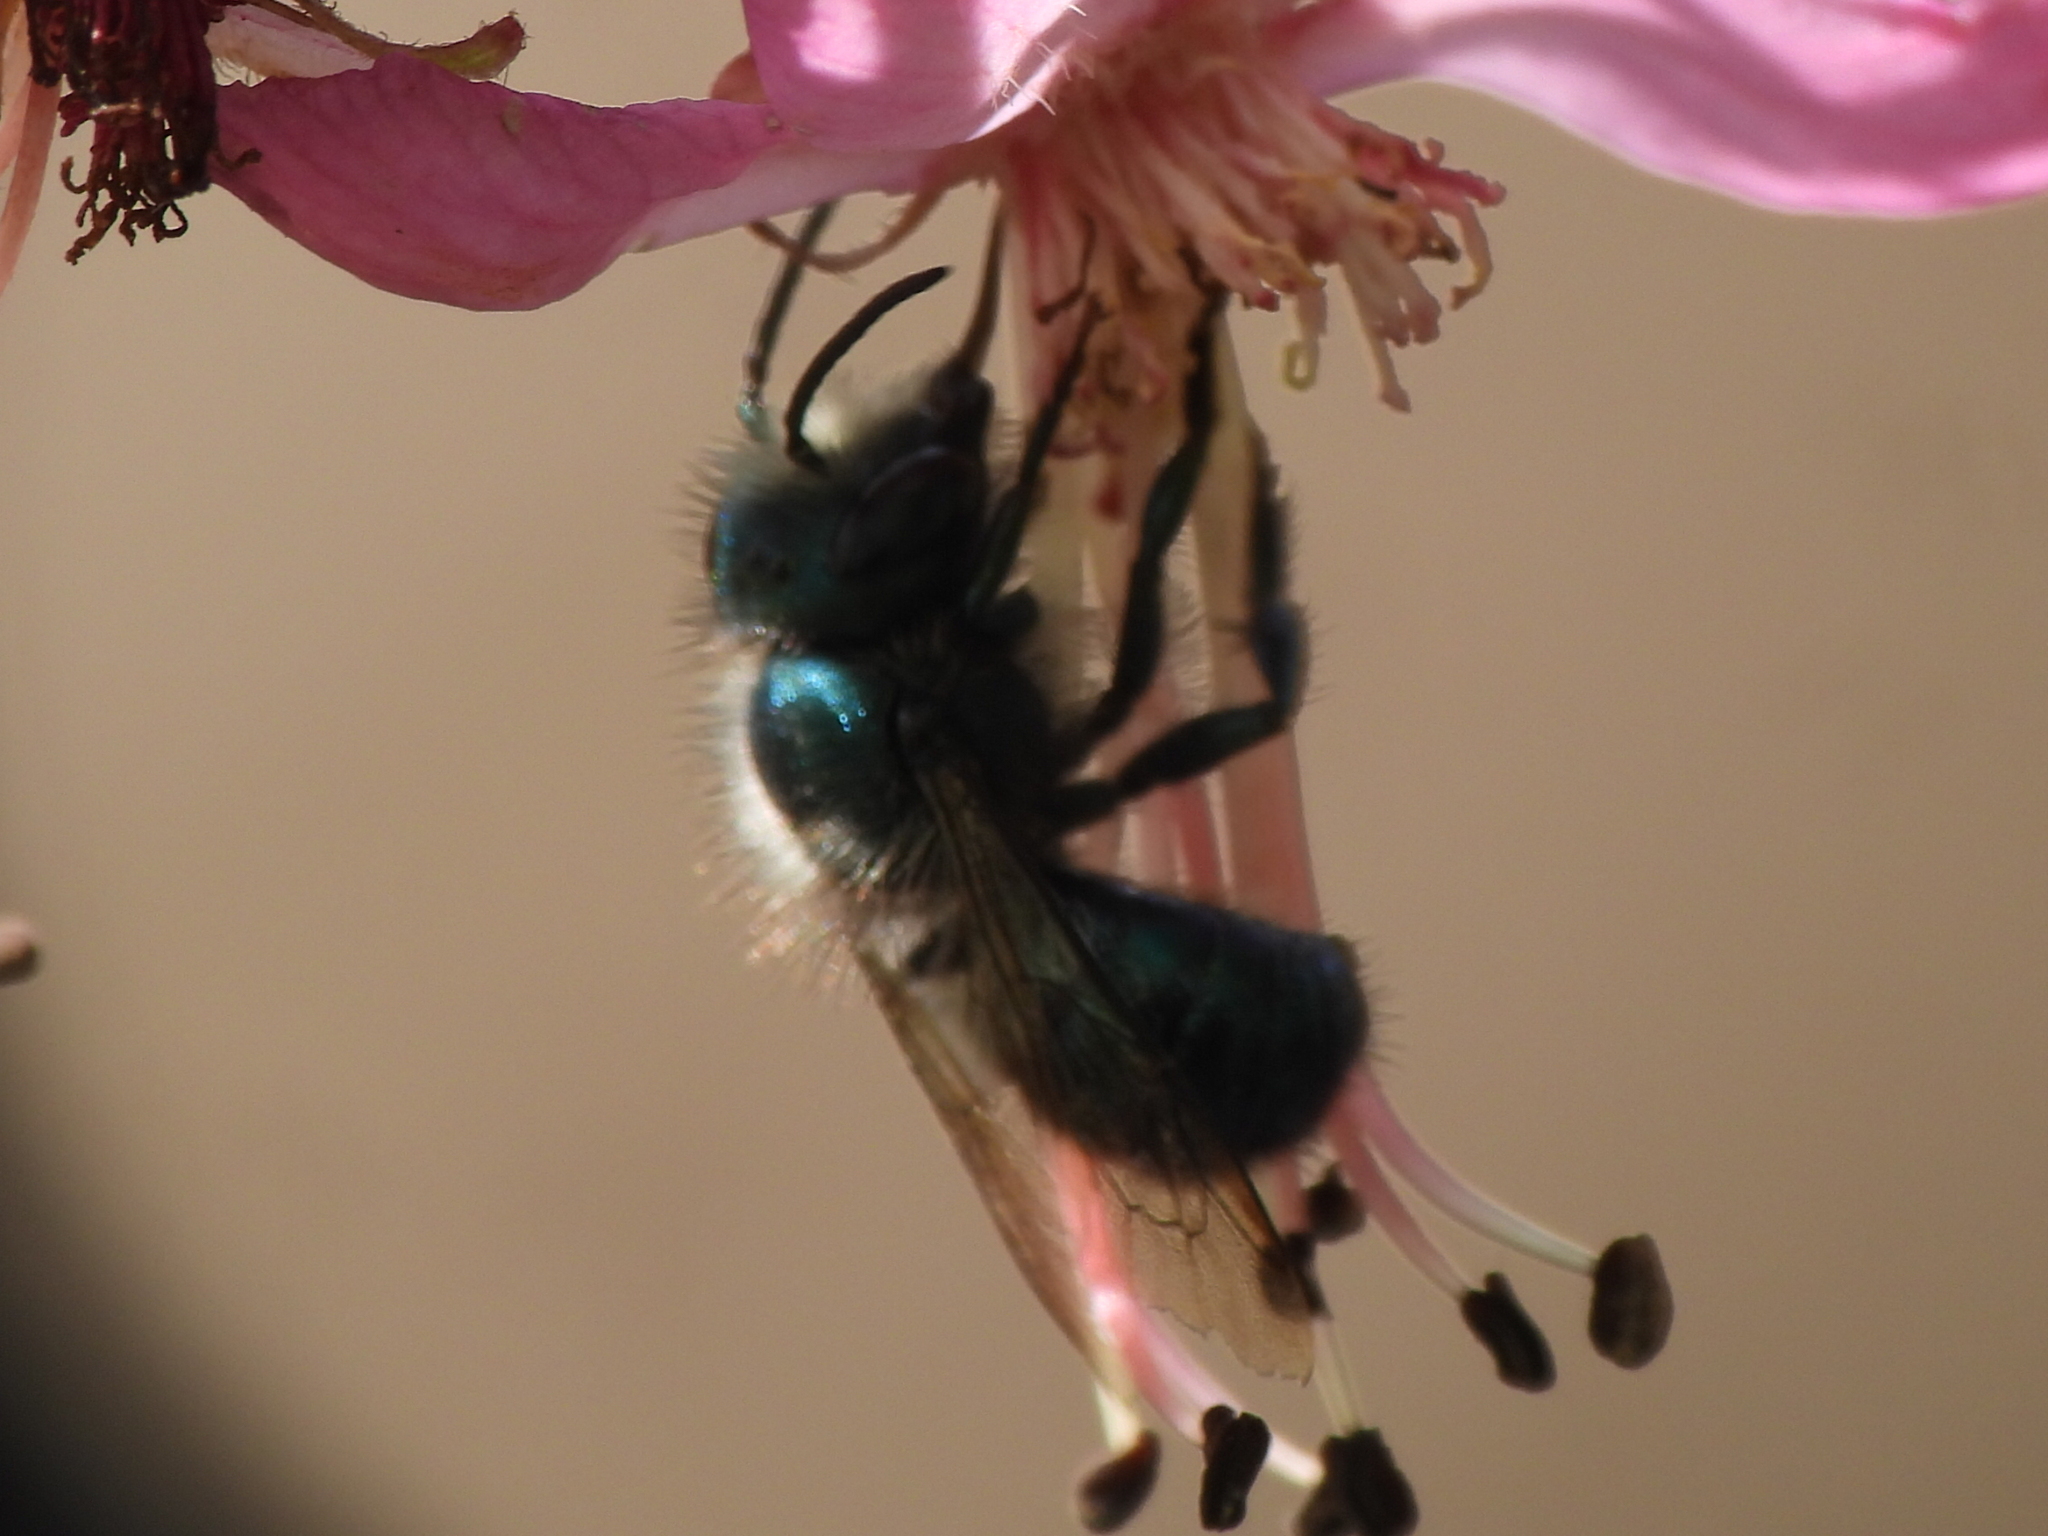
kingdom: Animalia
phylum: Arthropoda
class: Insecta
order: Hymenoptera
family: Megachilidae
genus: Osmia
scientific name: Osmia ribifloris
